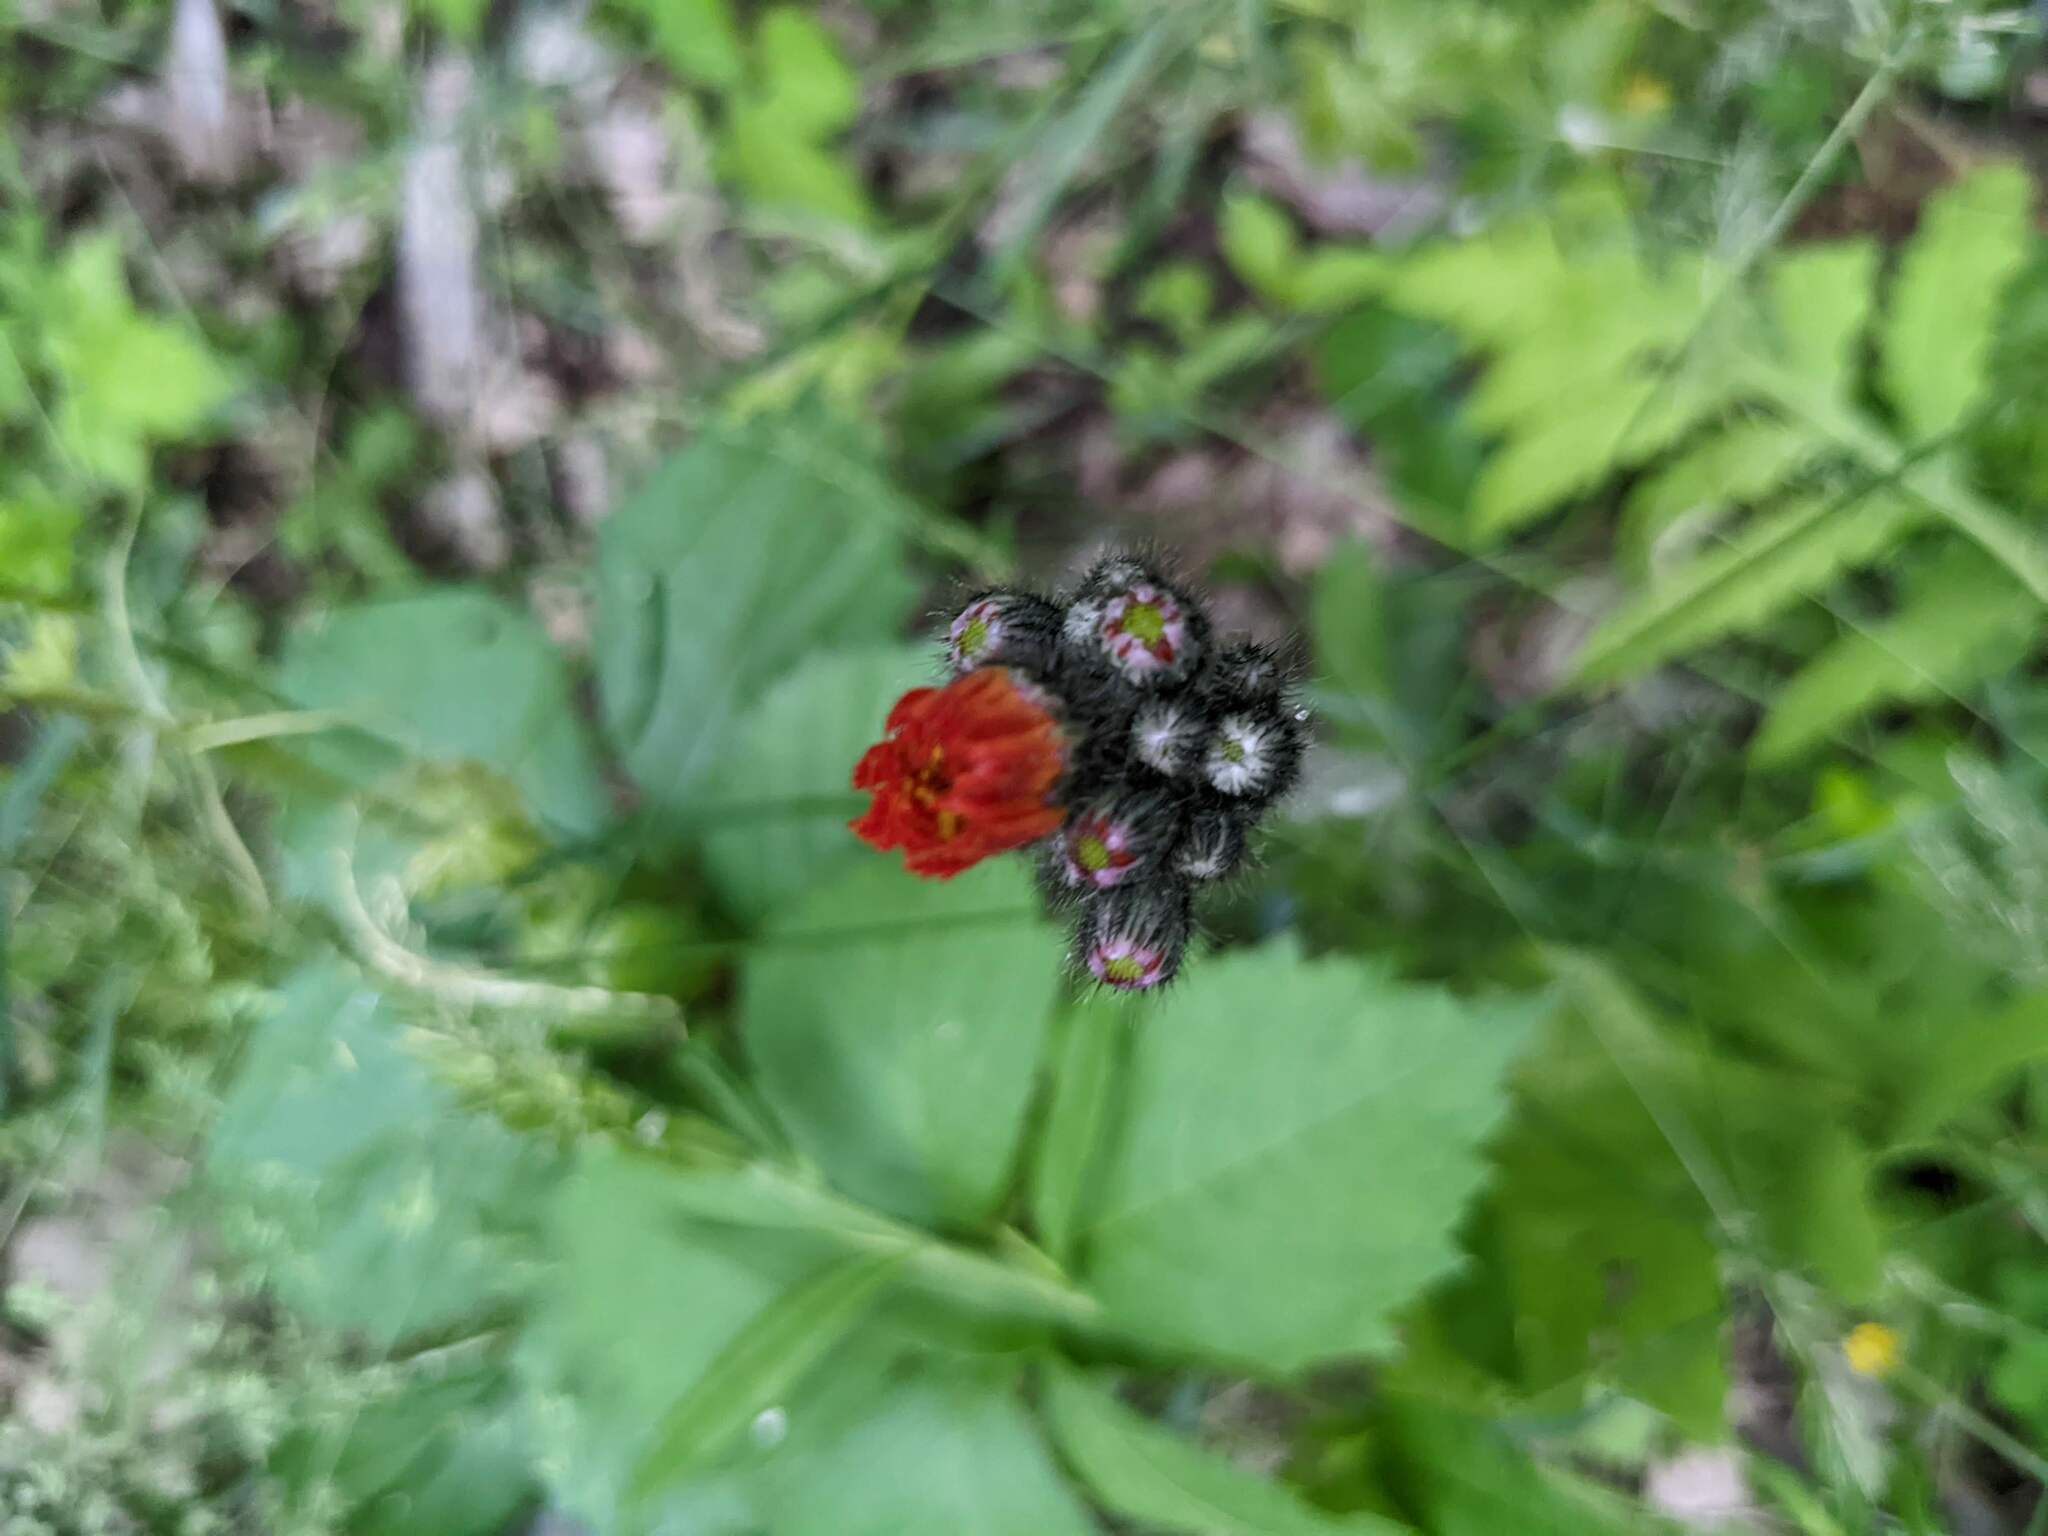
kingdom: Plantae
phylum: Tracheophyta
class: Magnoliopsida
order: Asterales
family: Asteraceae
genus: Pilosella
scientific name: Pilosella aurantiaca
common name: Fox-and-cubs
